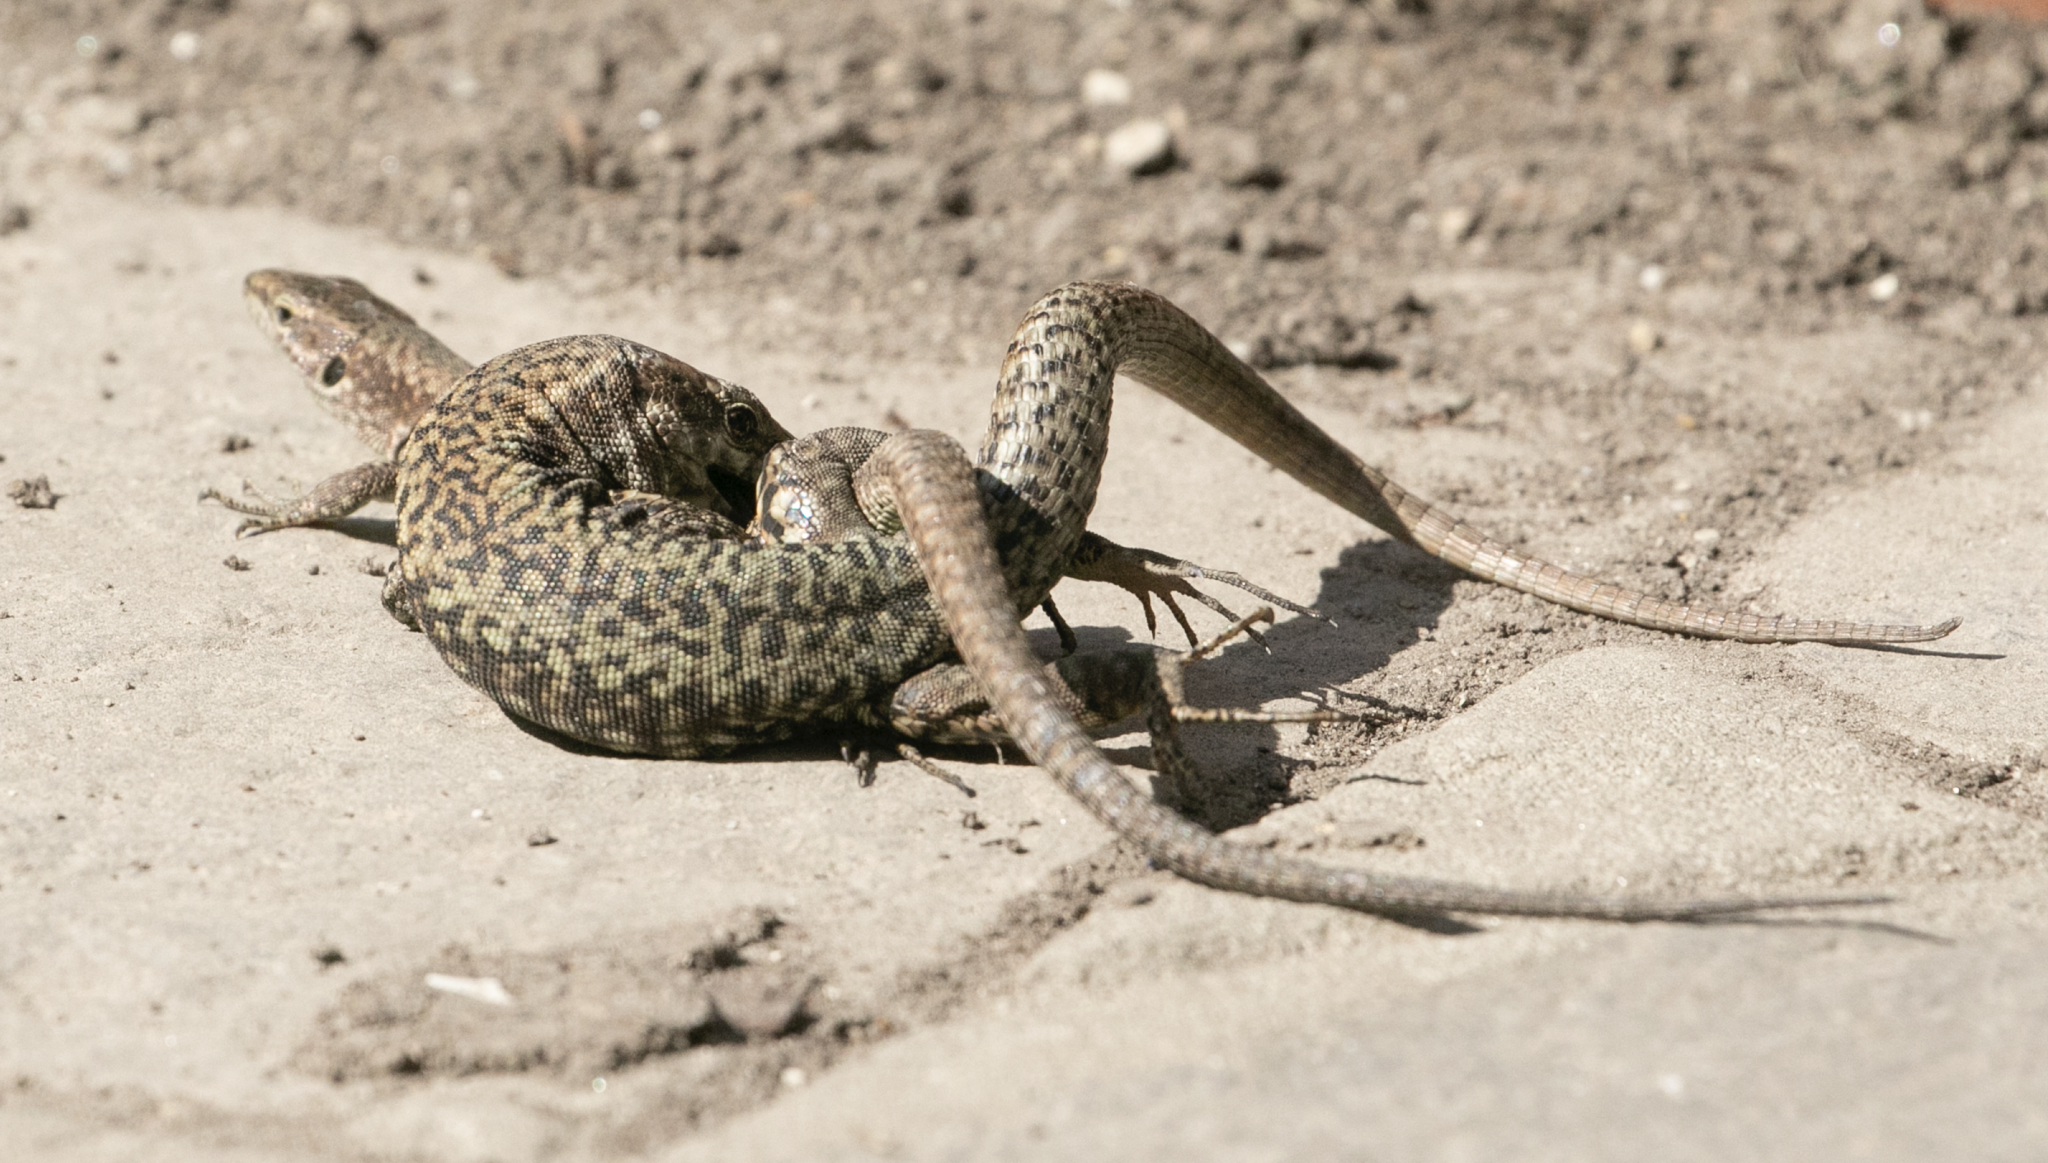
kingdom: Animalia
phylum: Chordata
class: Squamata
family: Lacertidae
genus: Podarcis
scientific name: Podarcis muralis
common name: Common wall lizard
